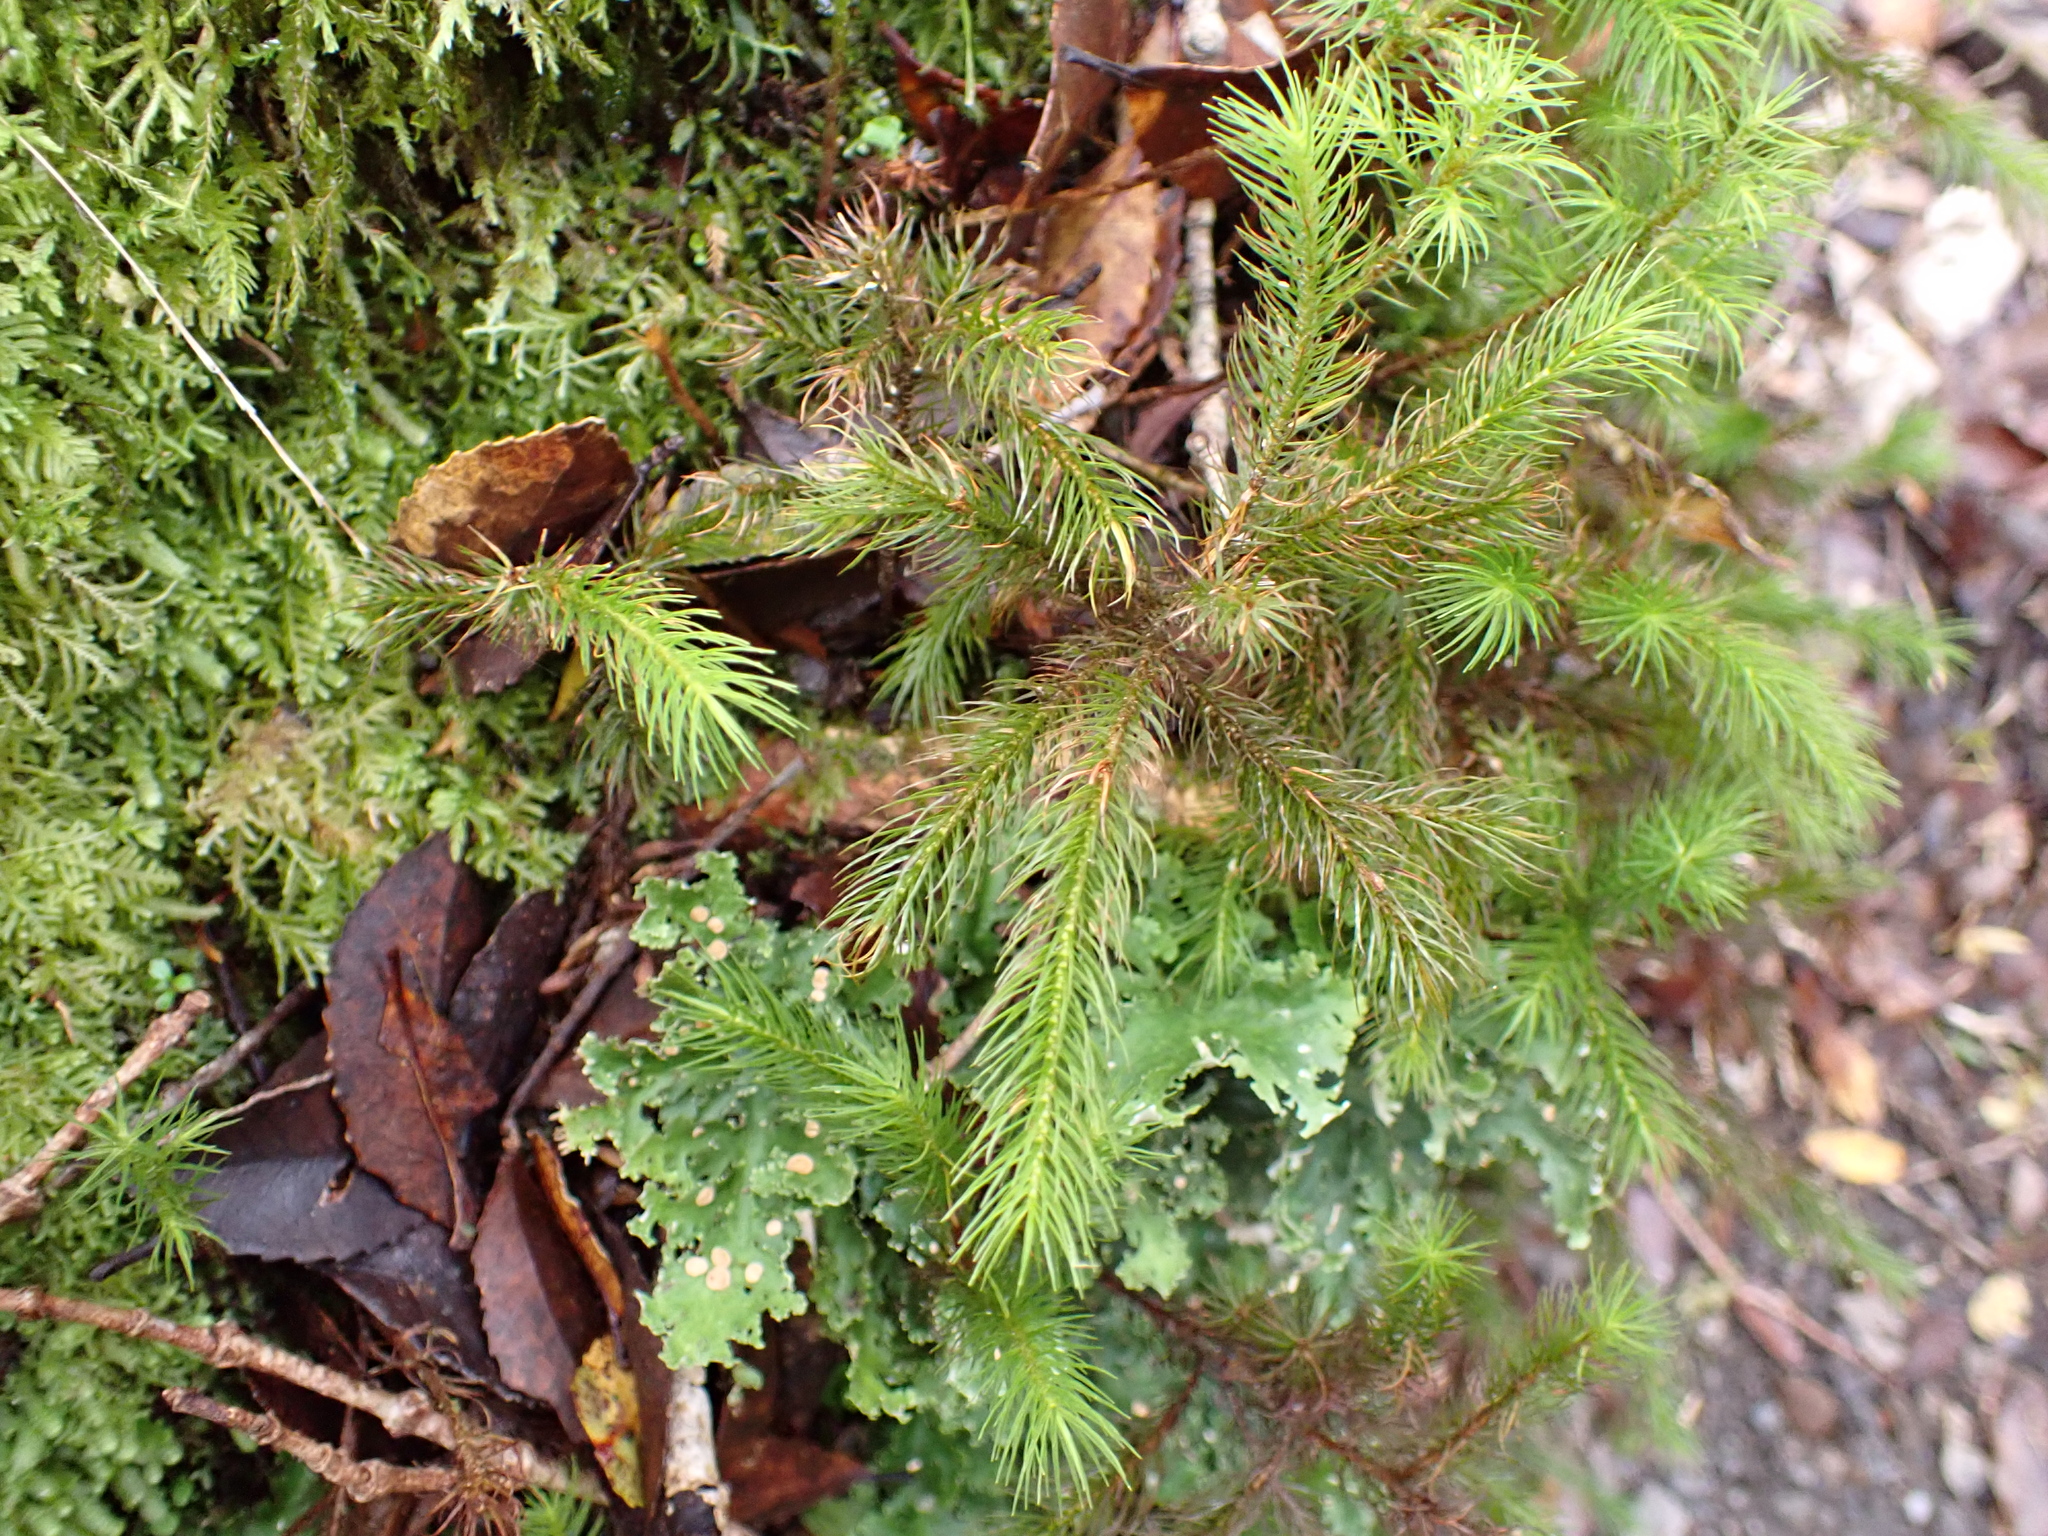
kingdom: Plantae
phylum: Bryophyta
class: Polytrichopsida
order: Polytrichales
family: Polytrichaceae
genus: Dendroligotrichum
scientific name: Dendroligotrichum tongariroense
